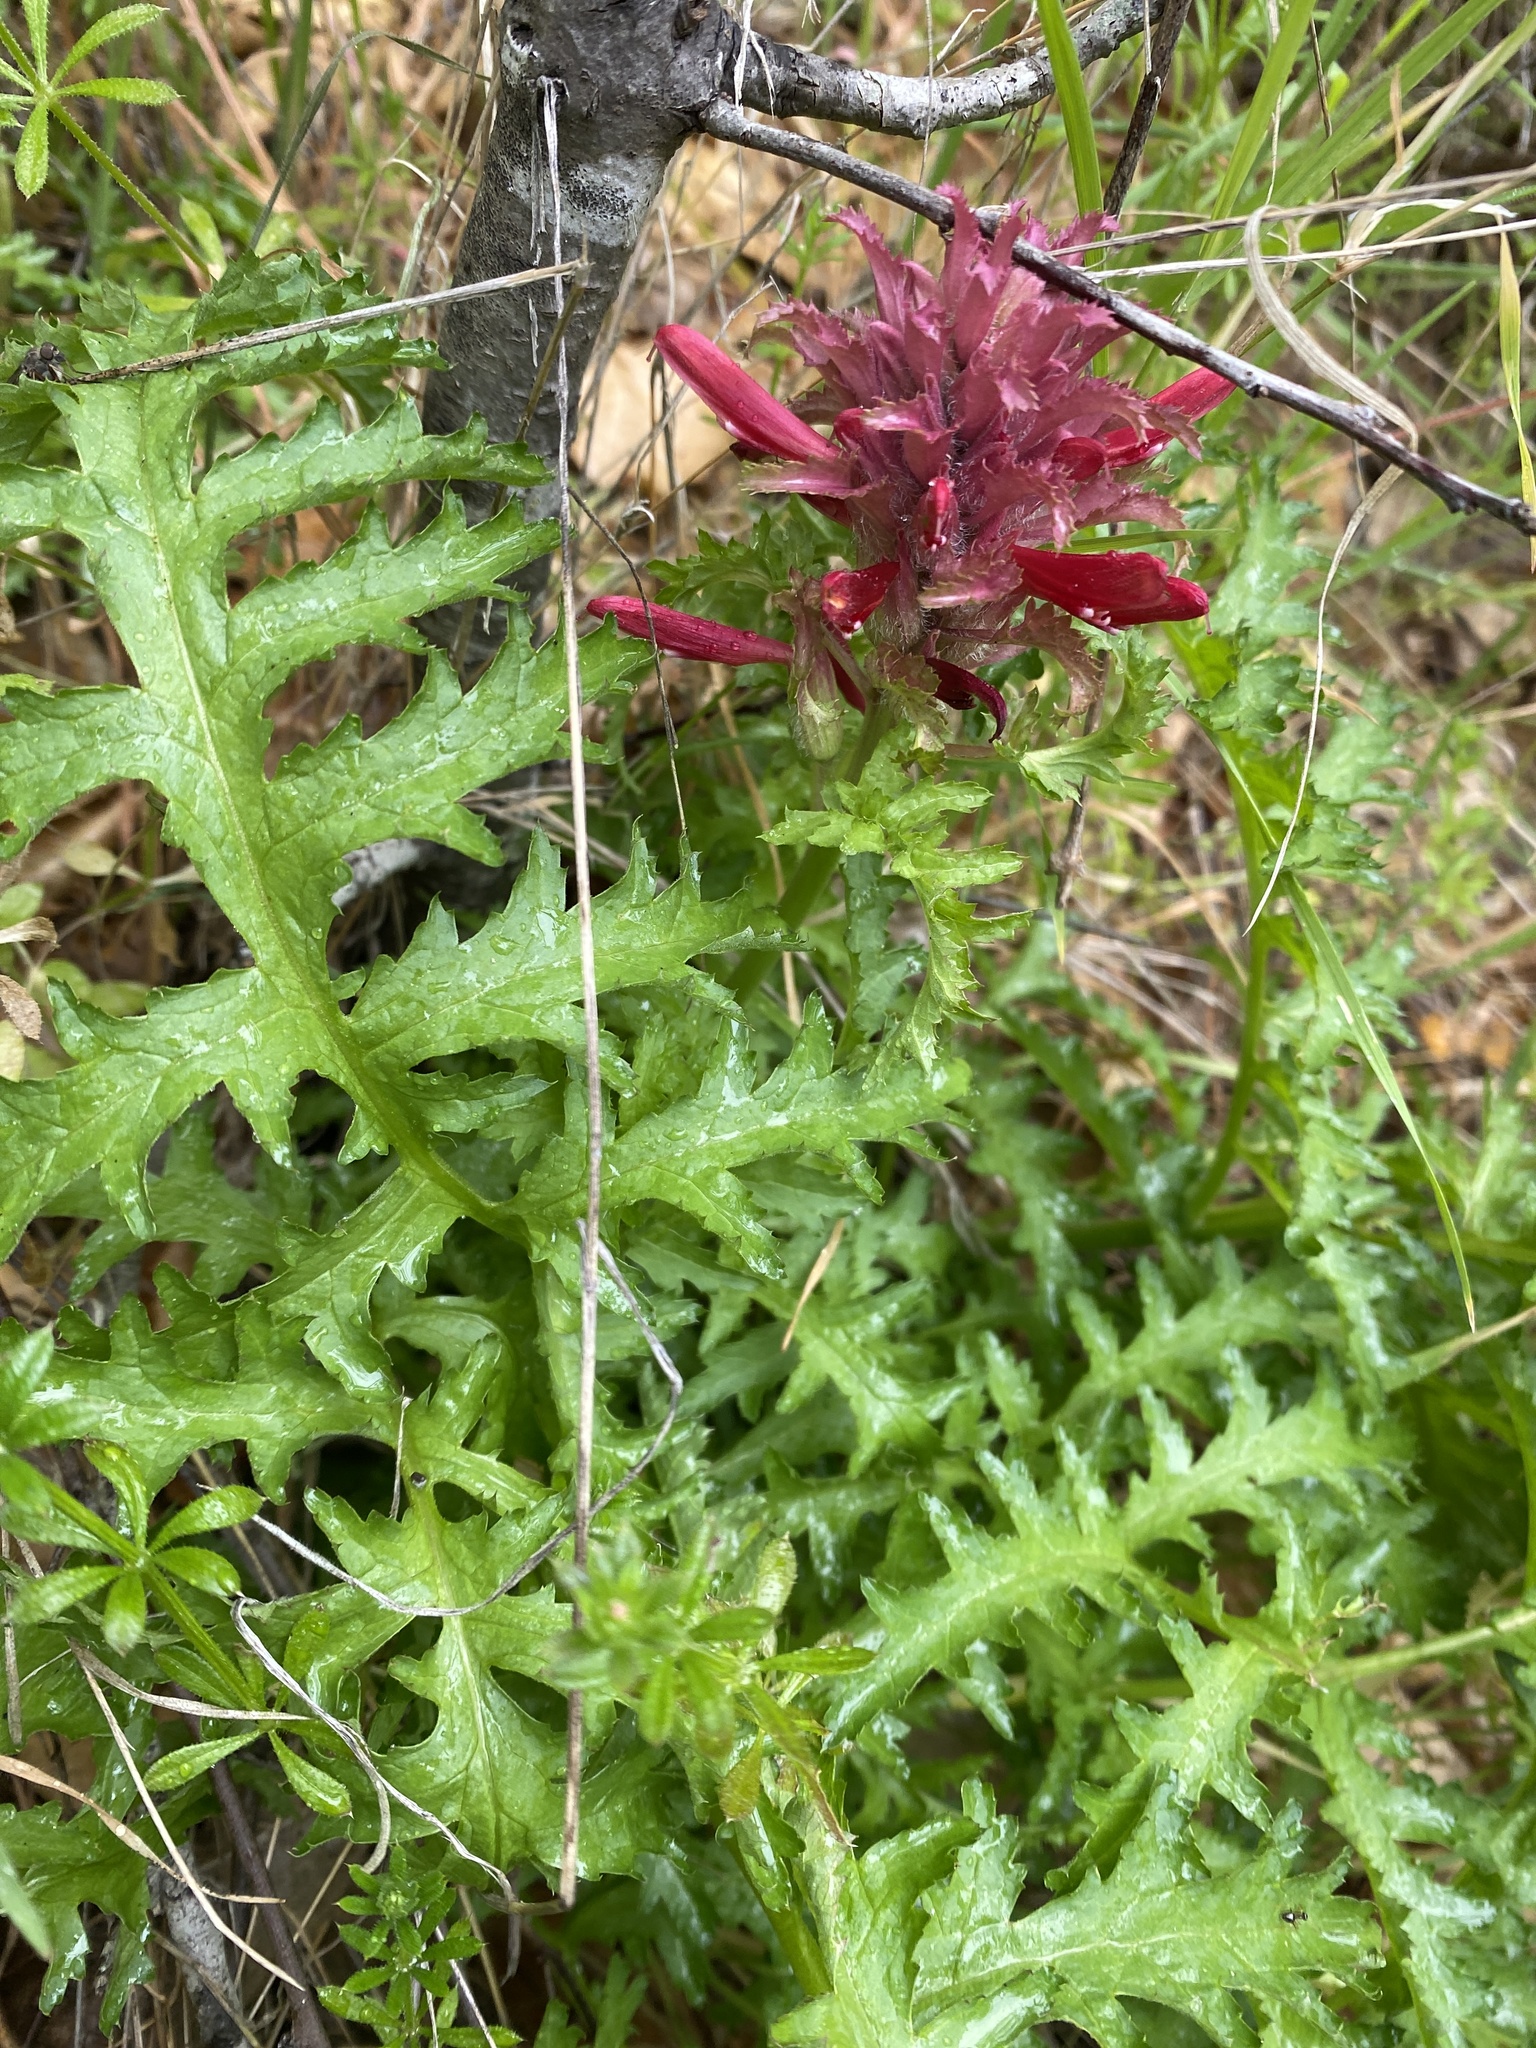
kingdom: Plantae
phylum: Tracheophyta
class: Magnoliopsida
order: Lamiales
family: Orobanchaceae
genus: Pedicularis
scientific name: Pedicularis densiflora
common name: Indian warrior
